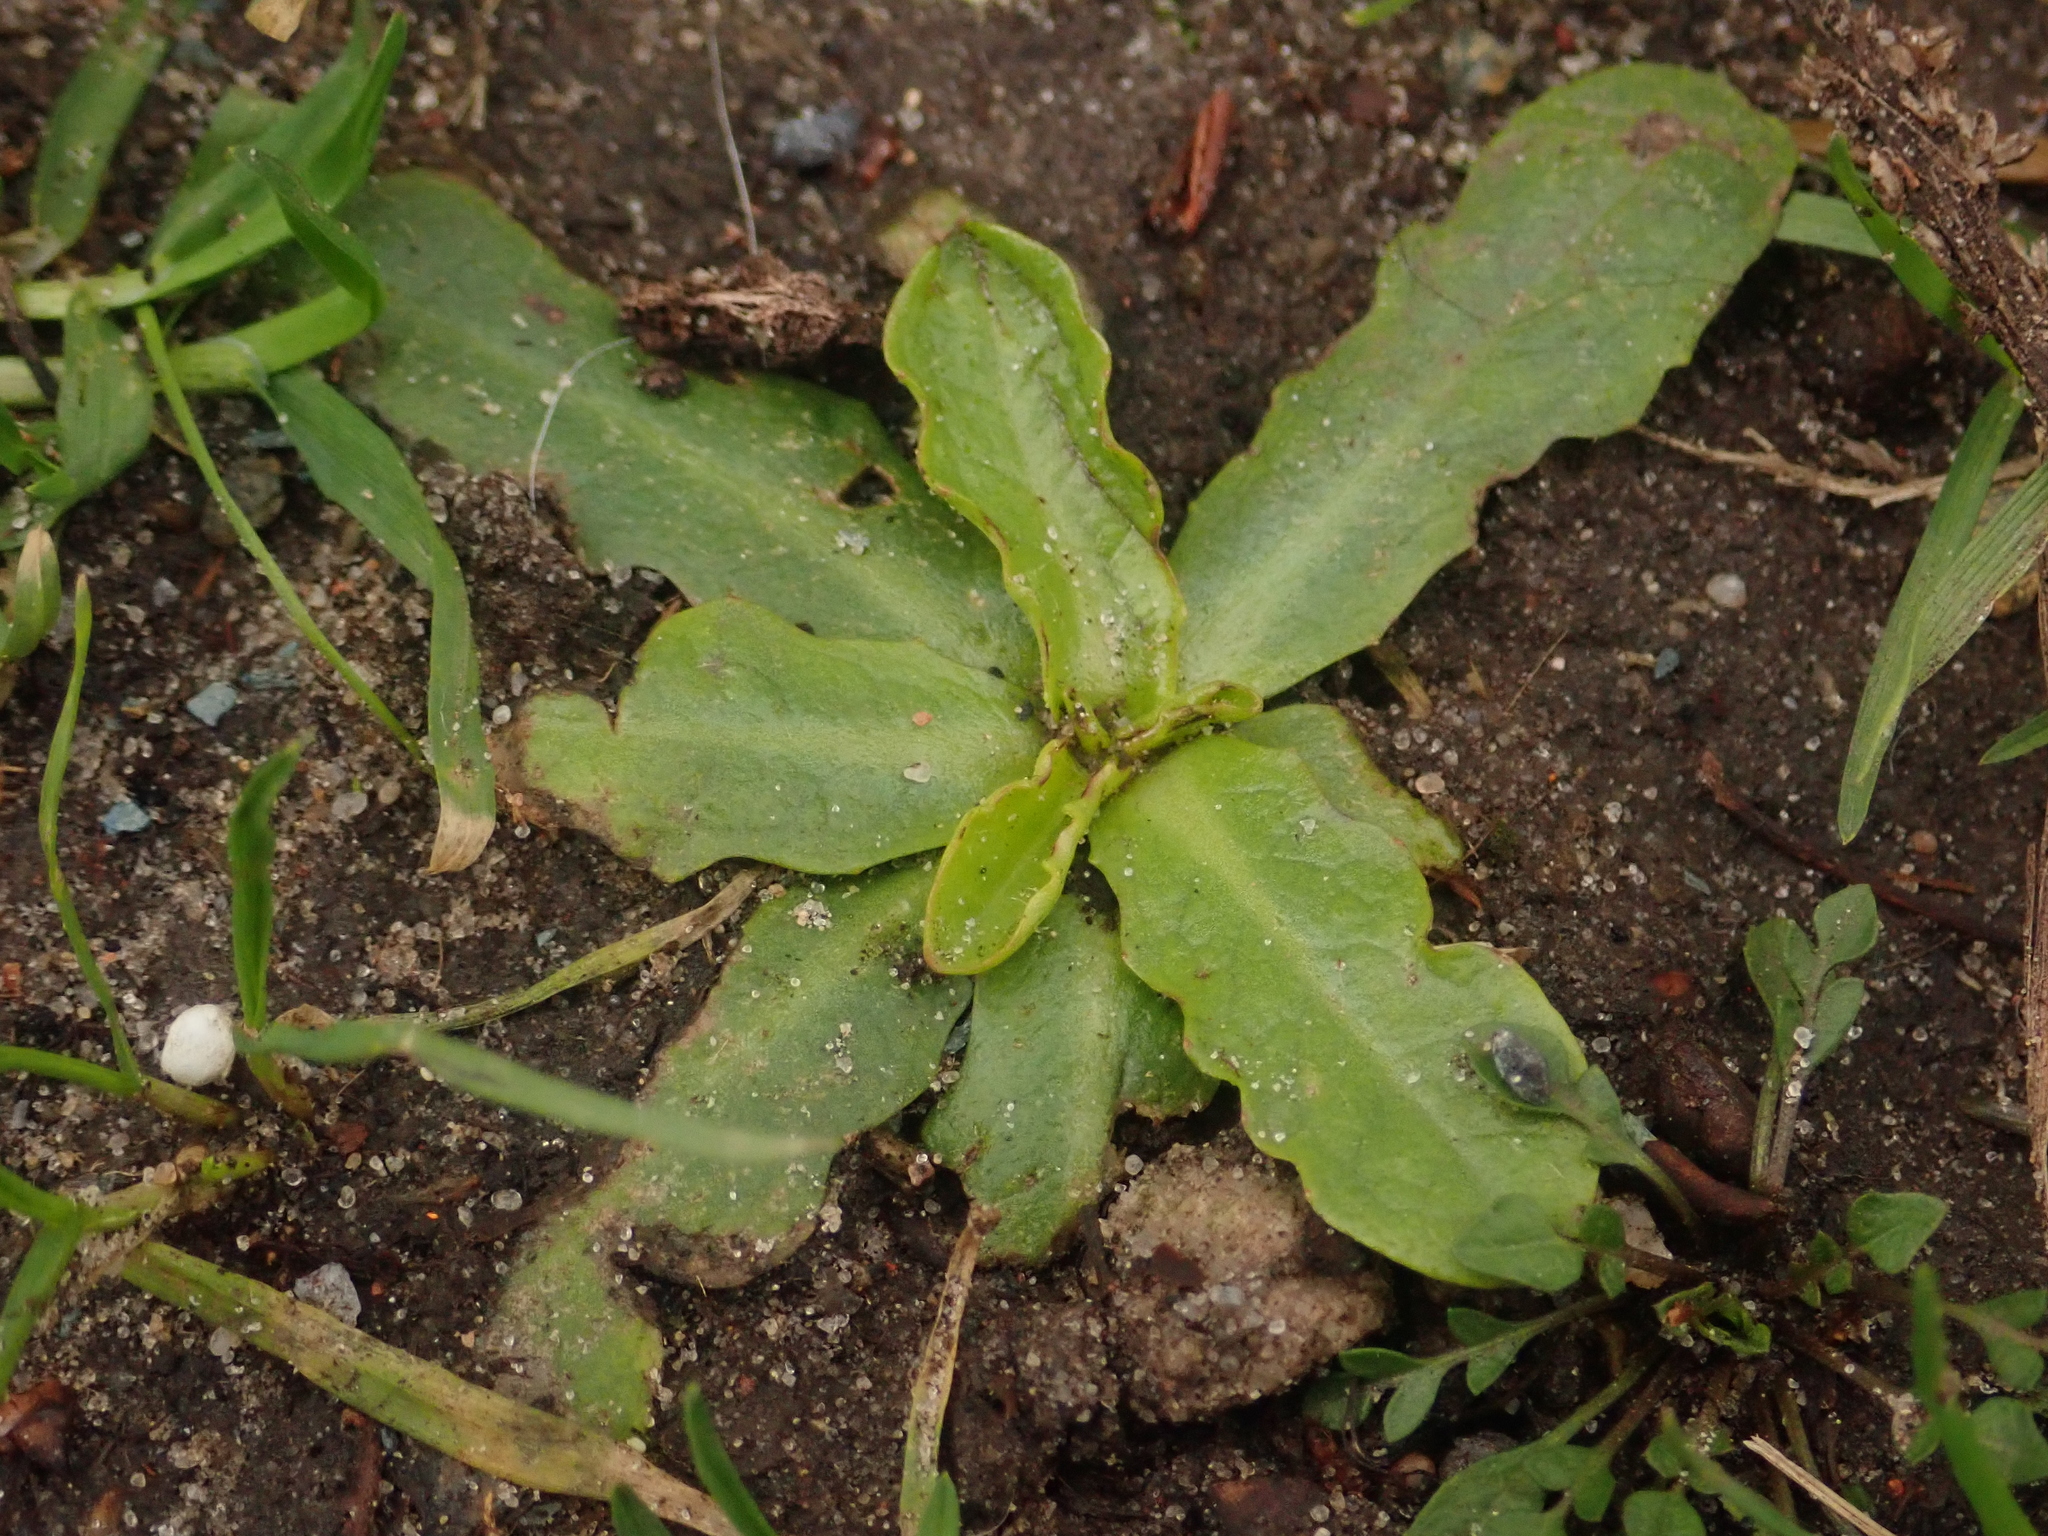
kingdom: Plantae
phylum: Tracheophyta
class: Magnoliopsida
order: Asterales
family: Asteraceae
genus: Hypochaeris
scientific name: Hypochaeris radicata
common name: Flatweed
